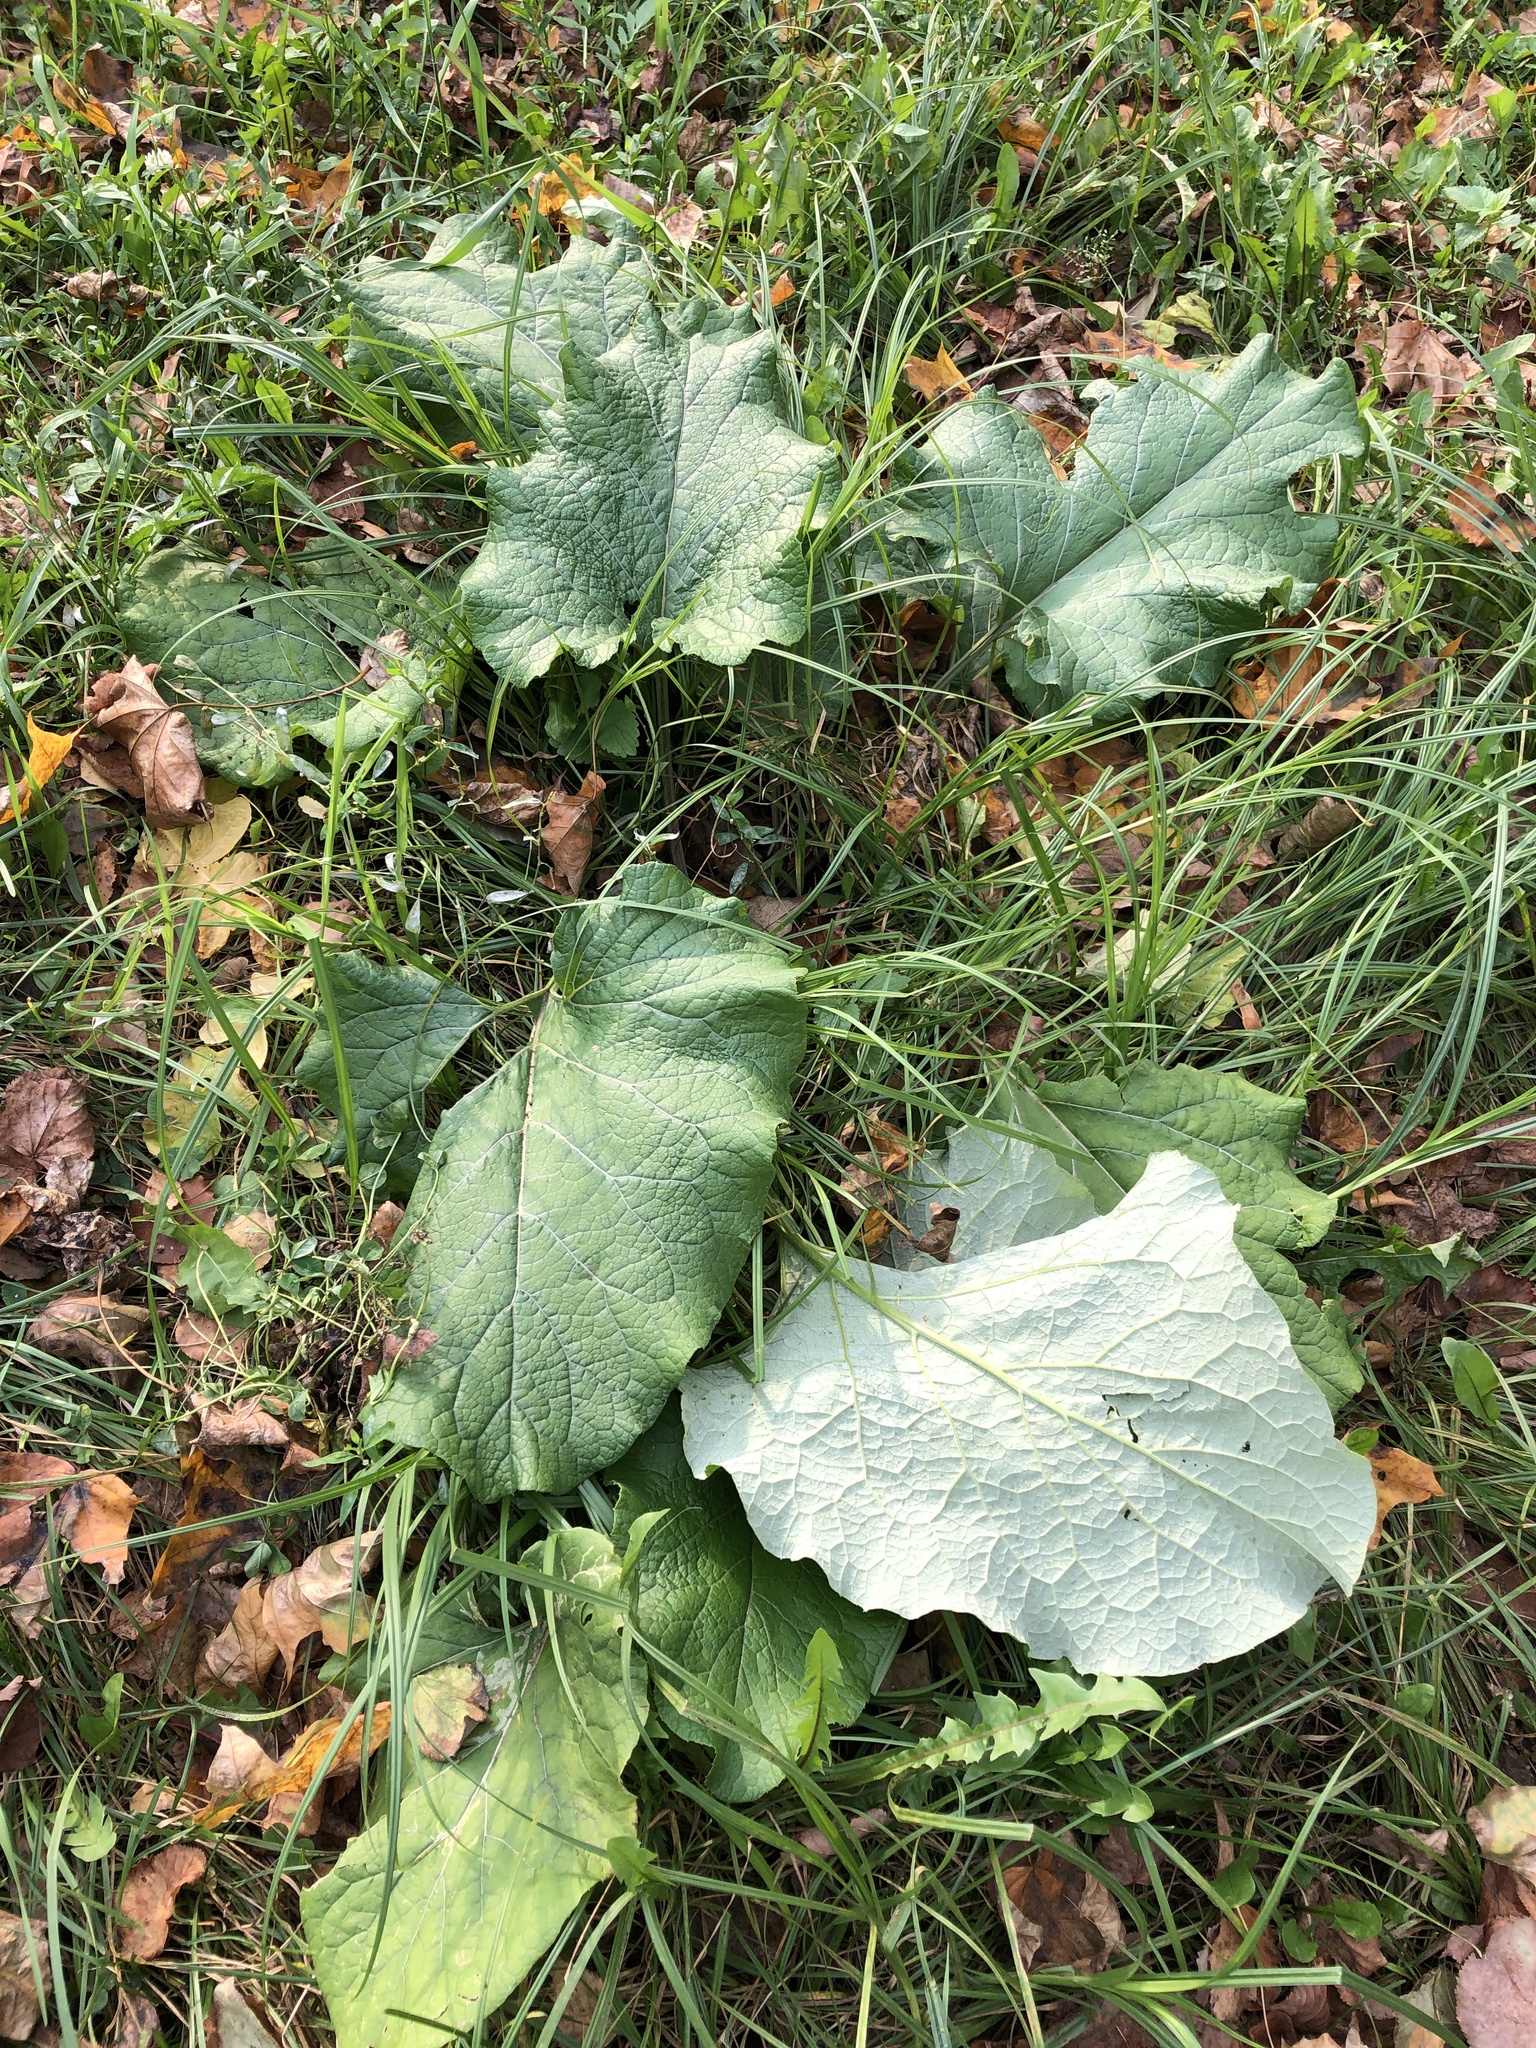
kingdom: Plantae
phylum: Tracheophyta
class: Magnoliopsida
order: Asterales
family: Asteraceae
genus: Arctium
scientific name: Arctium tomentosum
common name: Woolly burdock
